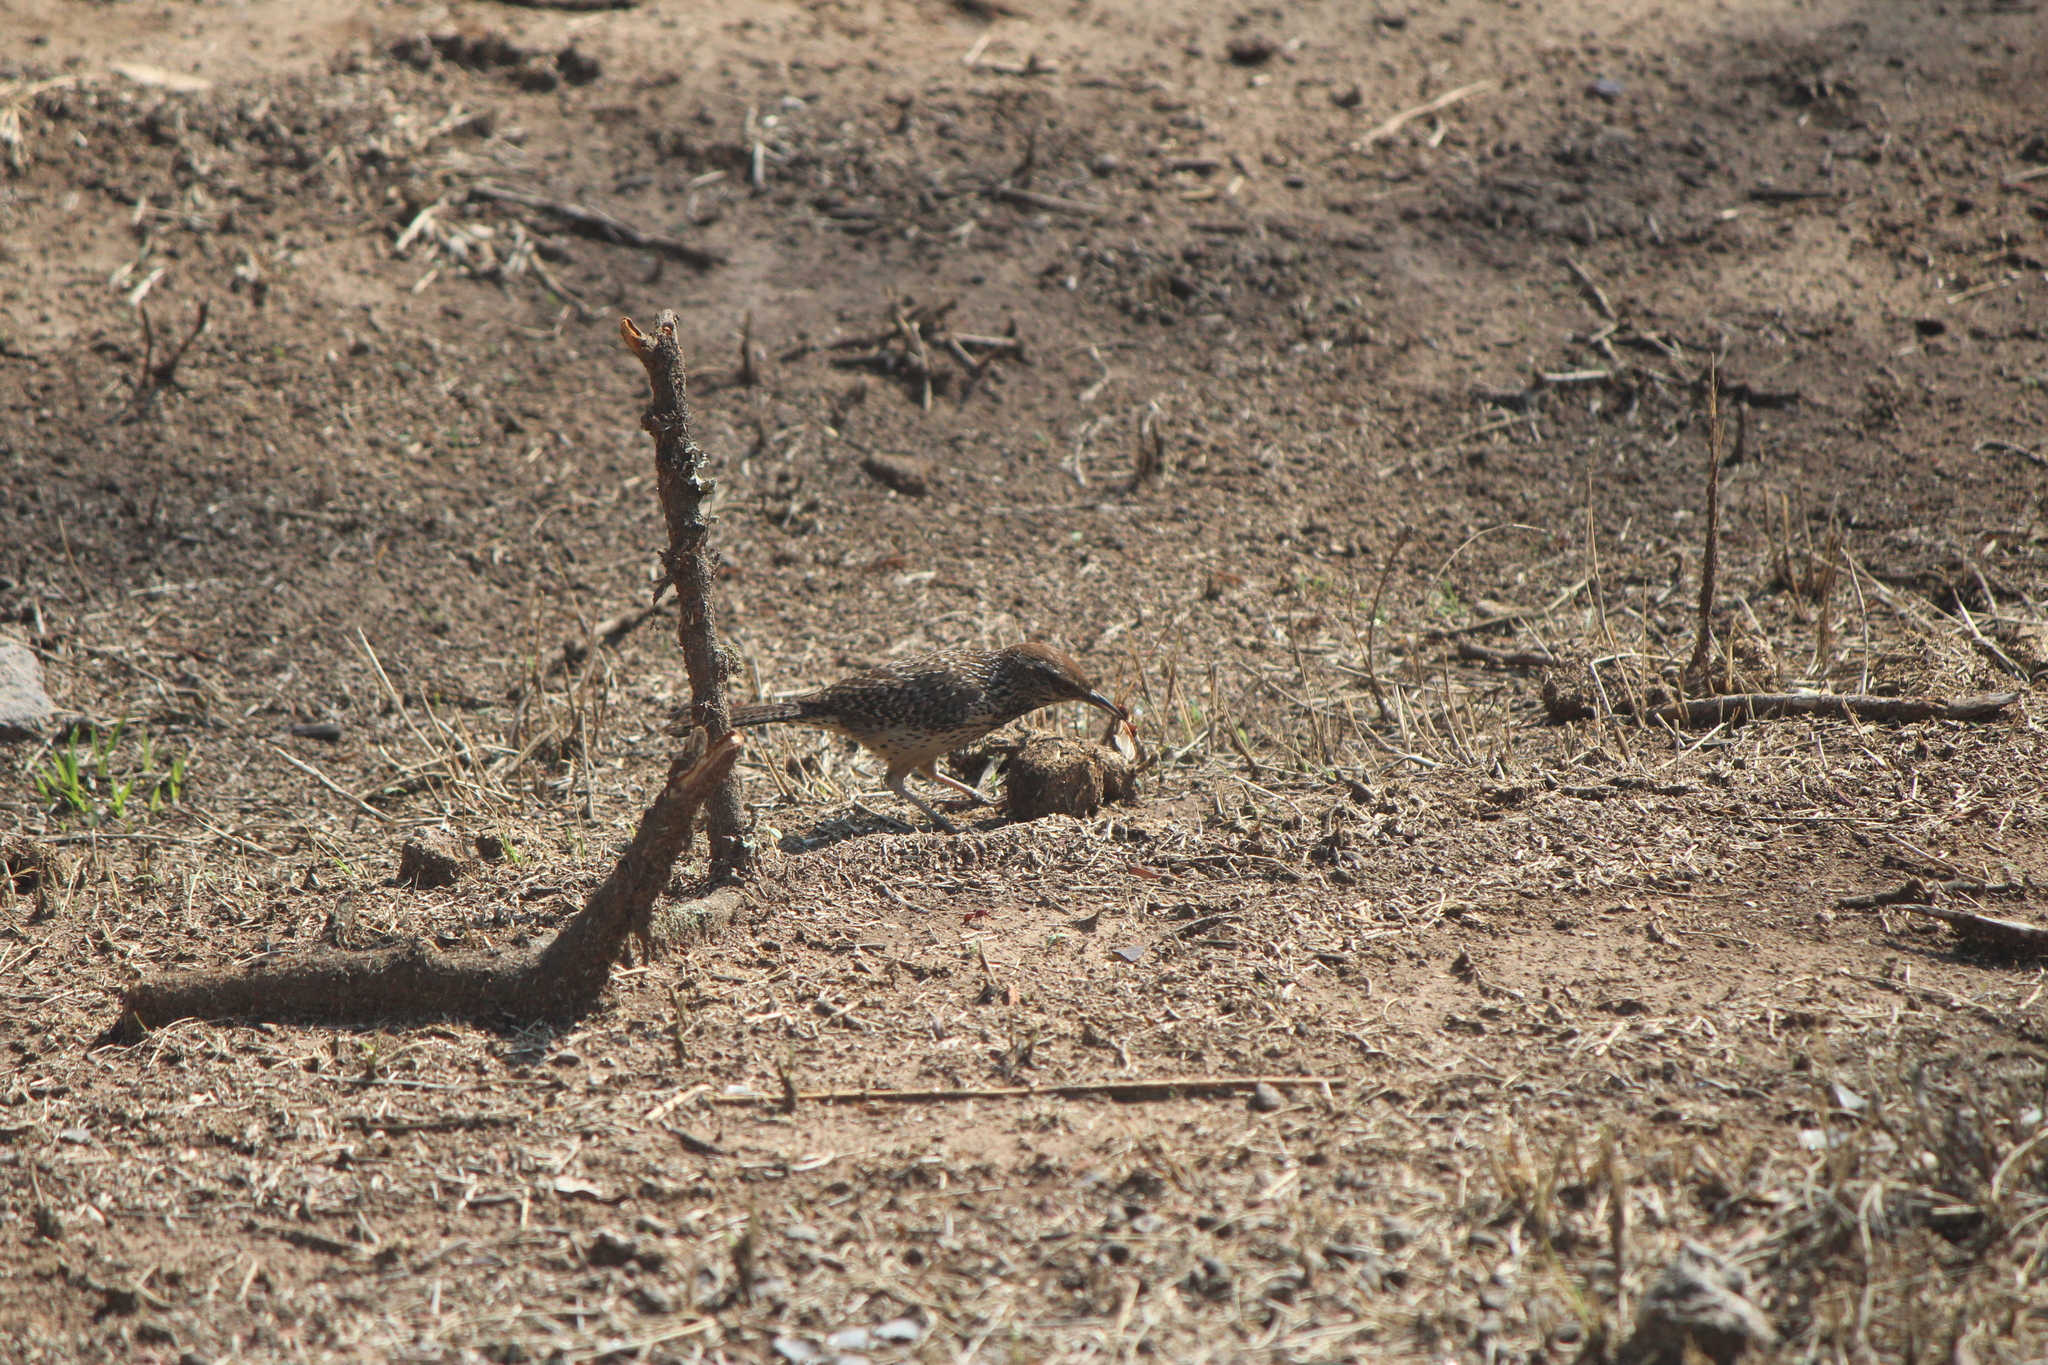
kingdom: Animalia
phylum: Chordata
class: Aves
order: Passeriformes
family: Troglodytidae
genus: Campylorhynchus
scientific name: Campylorhynchus brunneicapillus
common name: Cactus wren
